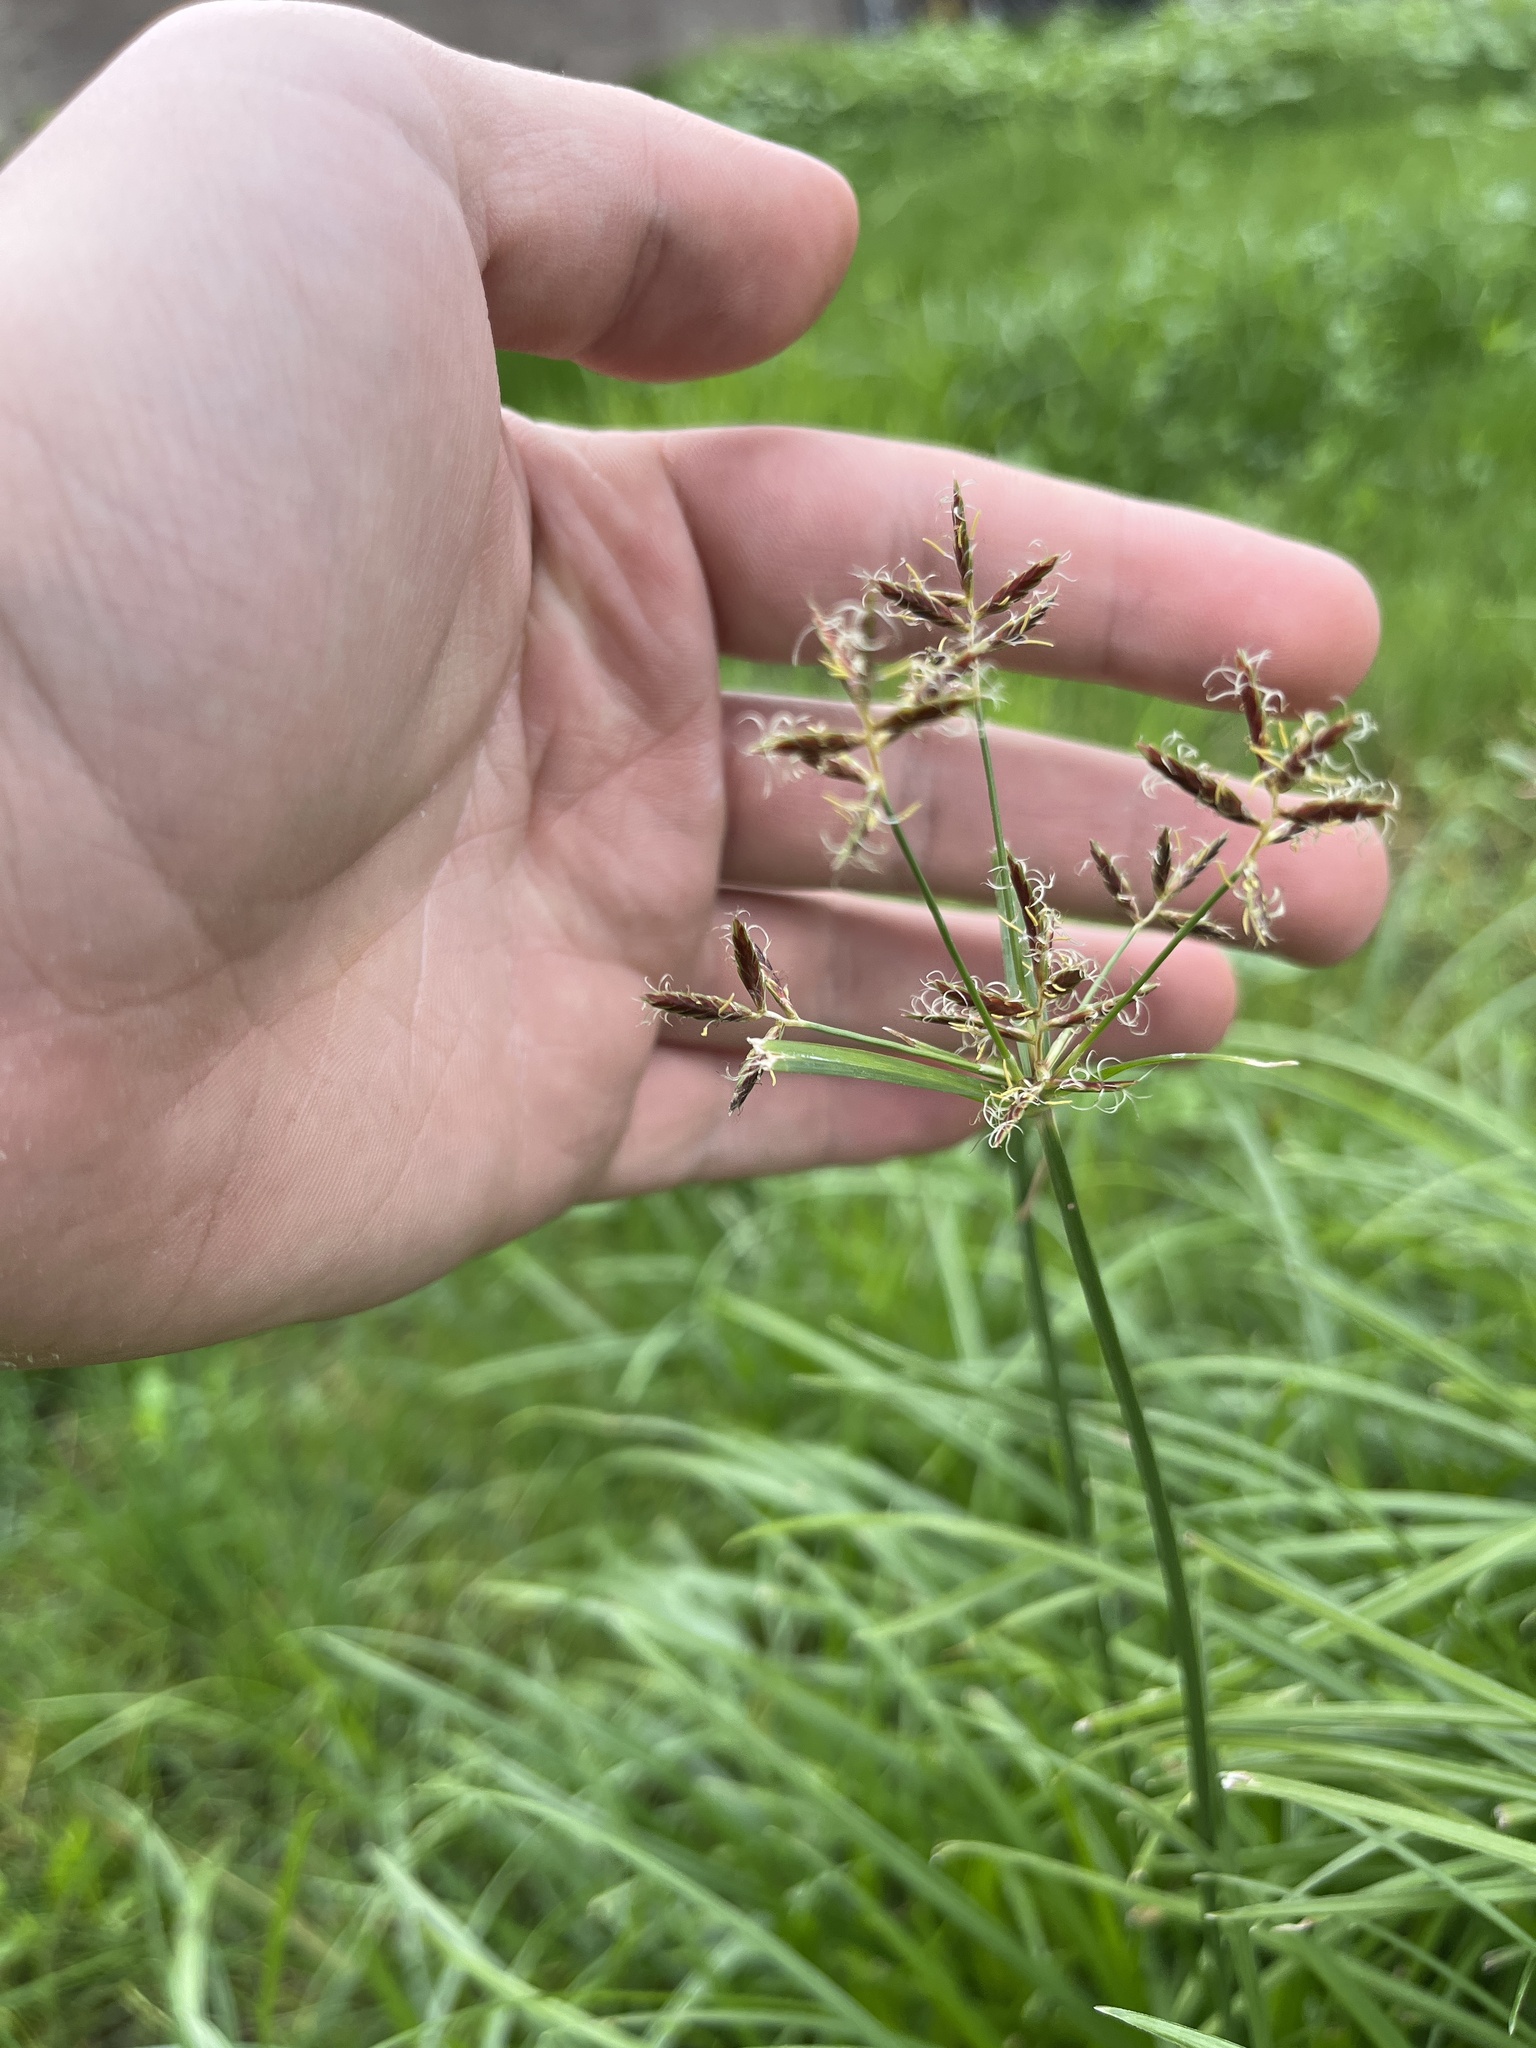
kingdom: Plantae
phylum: Tracheophyta
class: Liliopsida
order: Poales
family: Cyperaceae
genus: Cyperus
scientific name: Cyperus rotundus
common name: Nutgrass
